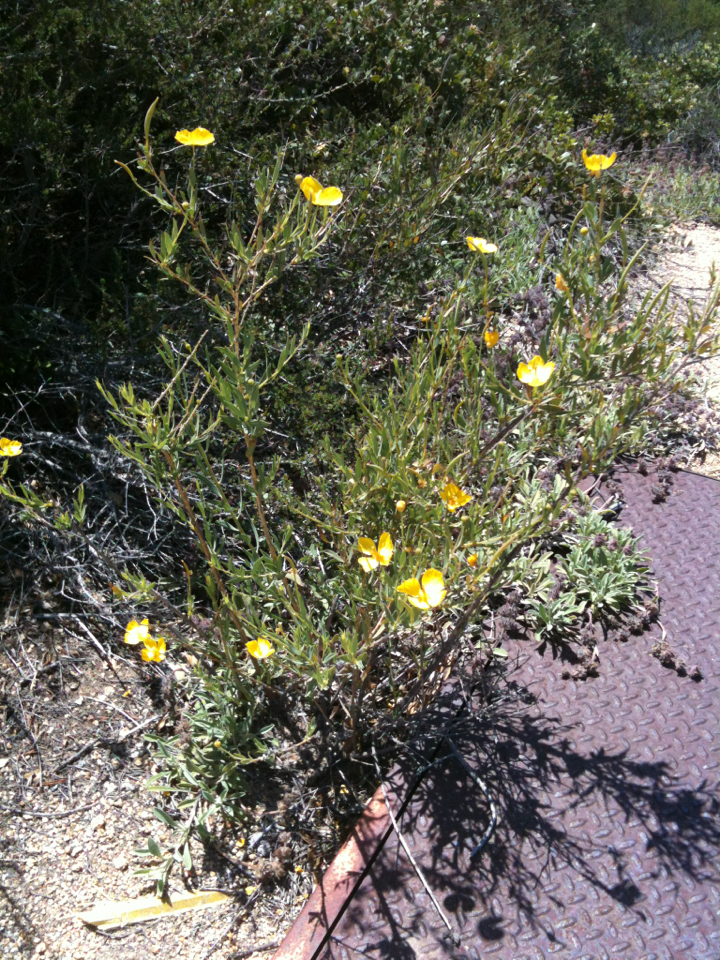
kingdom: Plantae
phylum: Tracheophyta
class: Magnoliopsida
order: Ranunculales
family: Papaveraceae
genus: Dendromecon
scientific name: Dendromecon rigida
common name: Tree poppy
